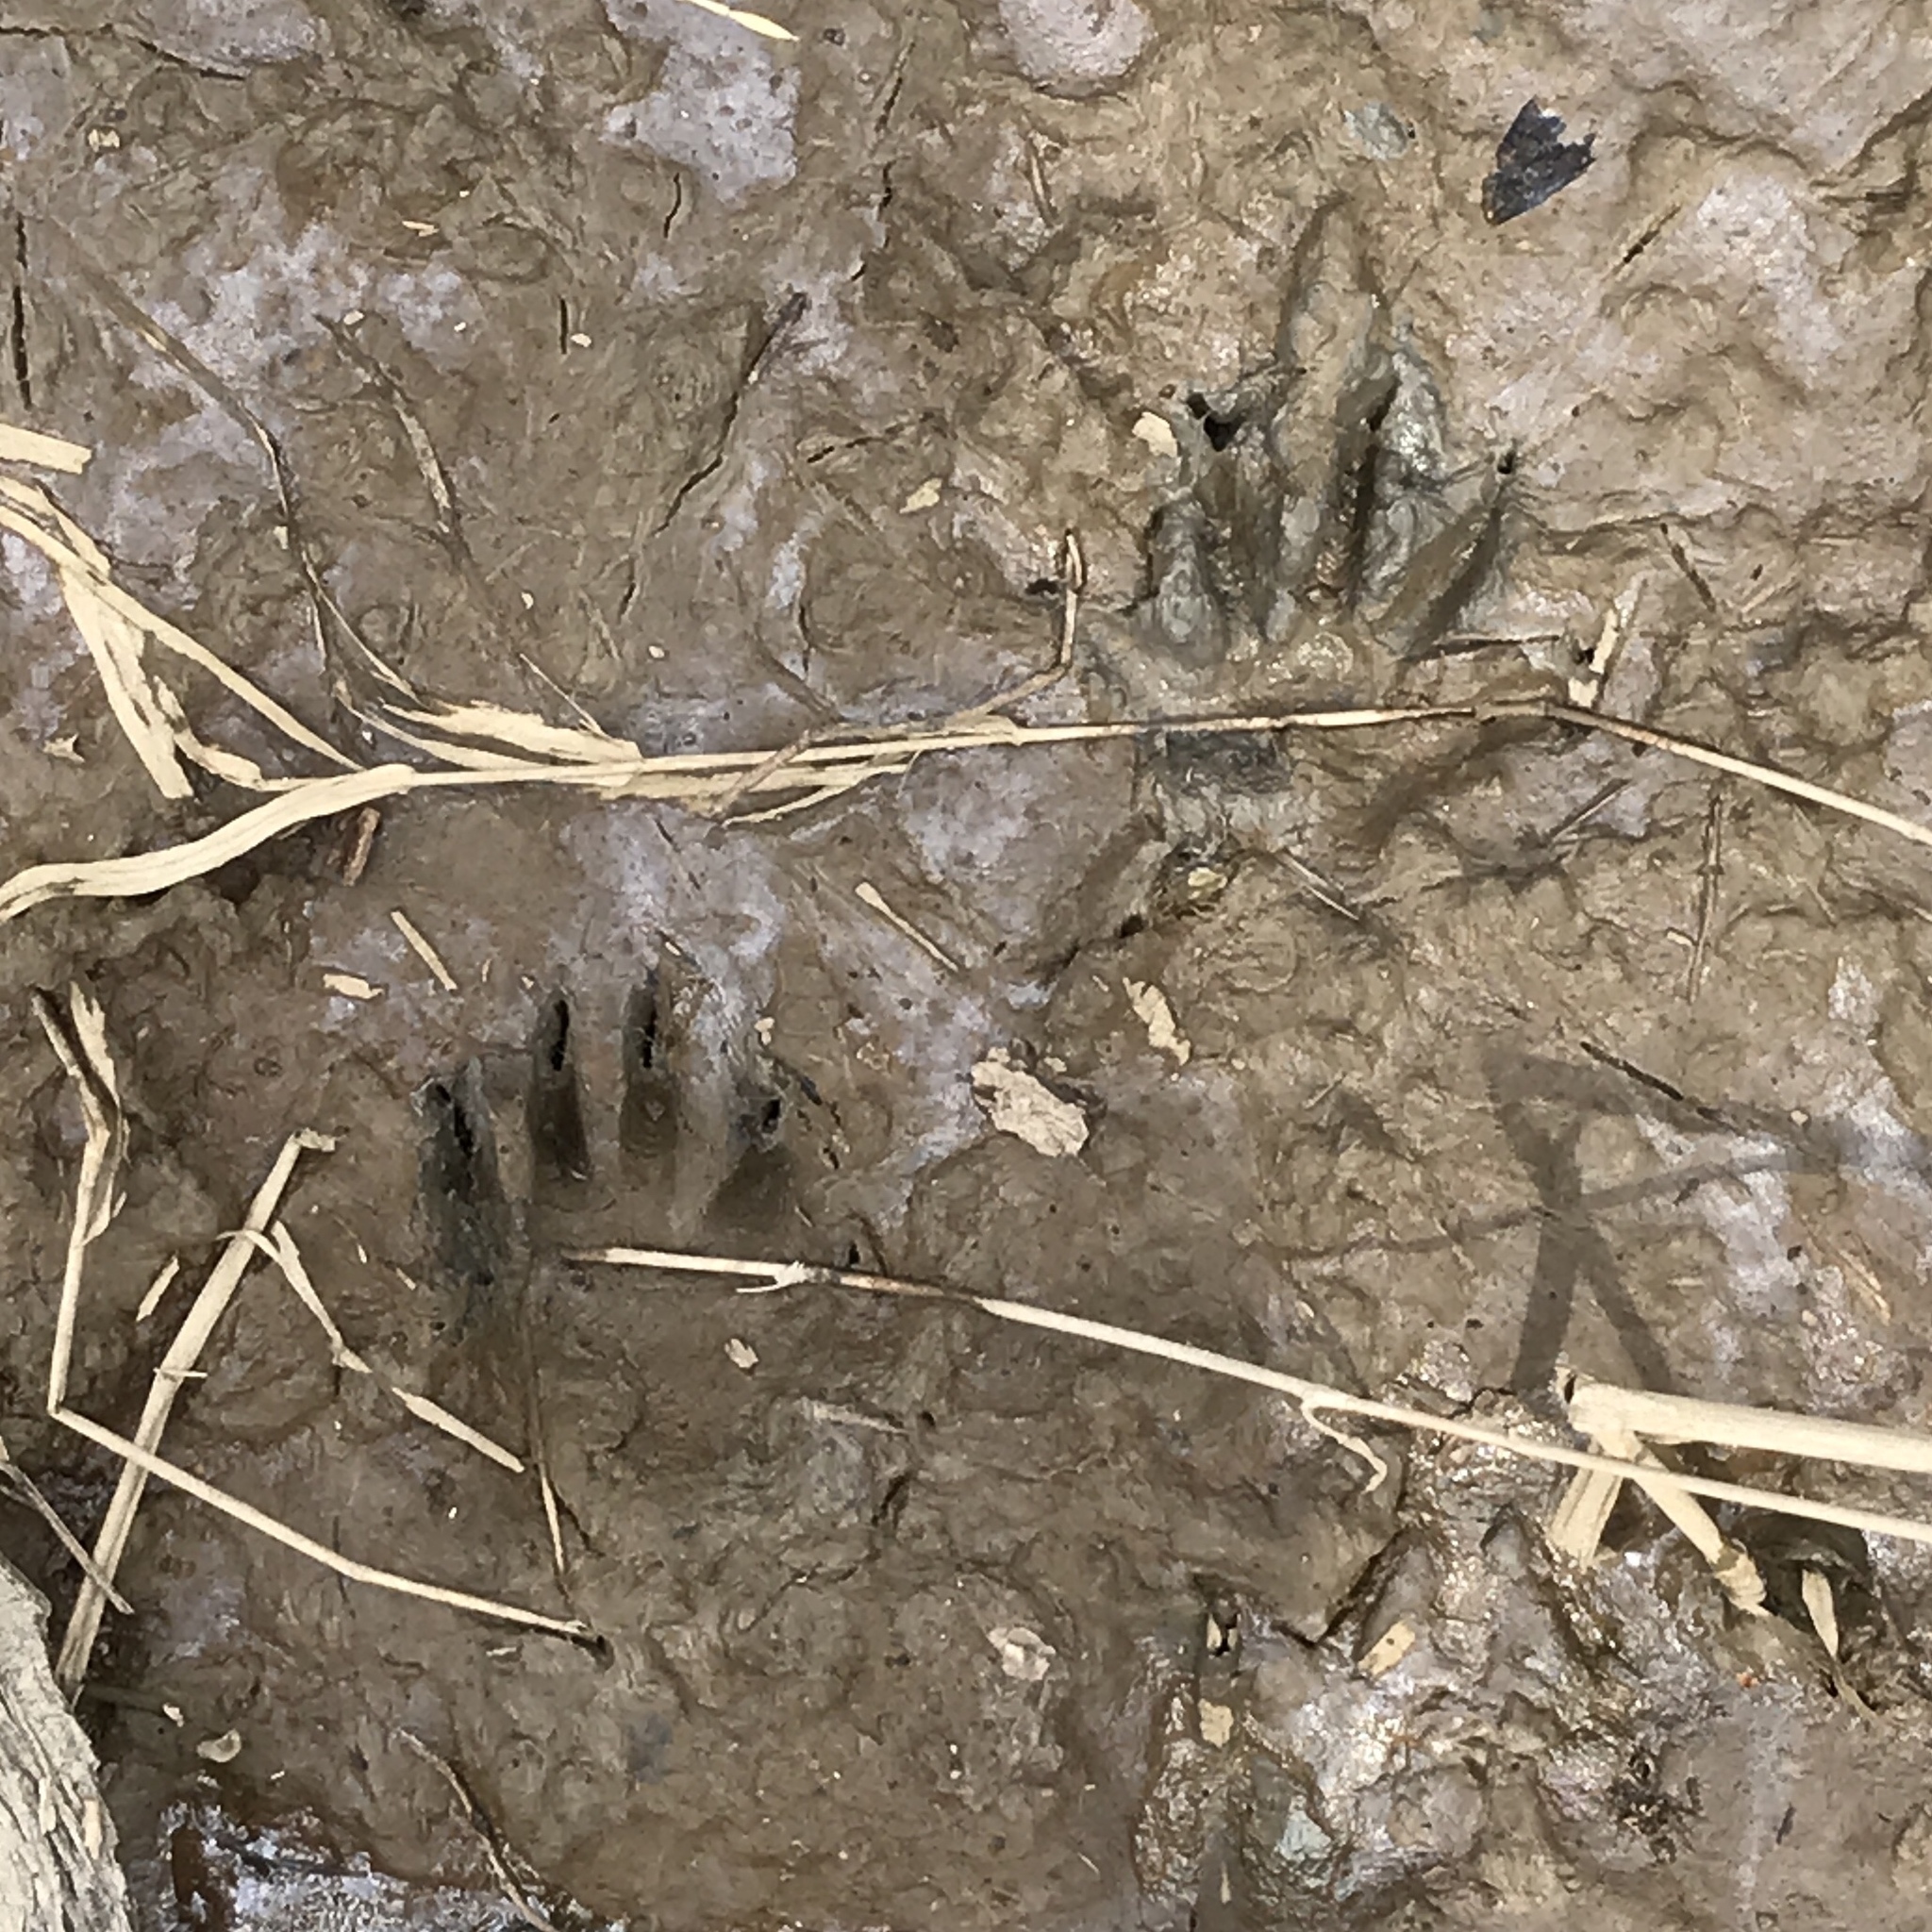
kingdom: Animalia
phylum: Chordata
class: Mammalia
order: Carnivora
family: Procyonidae
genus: Procyon
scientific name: Procyon lotor
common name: Raccoon
